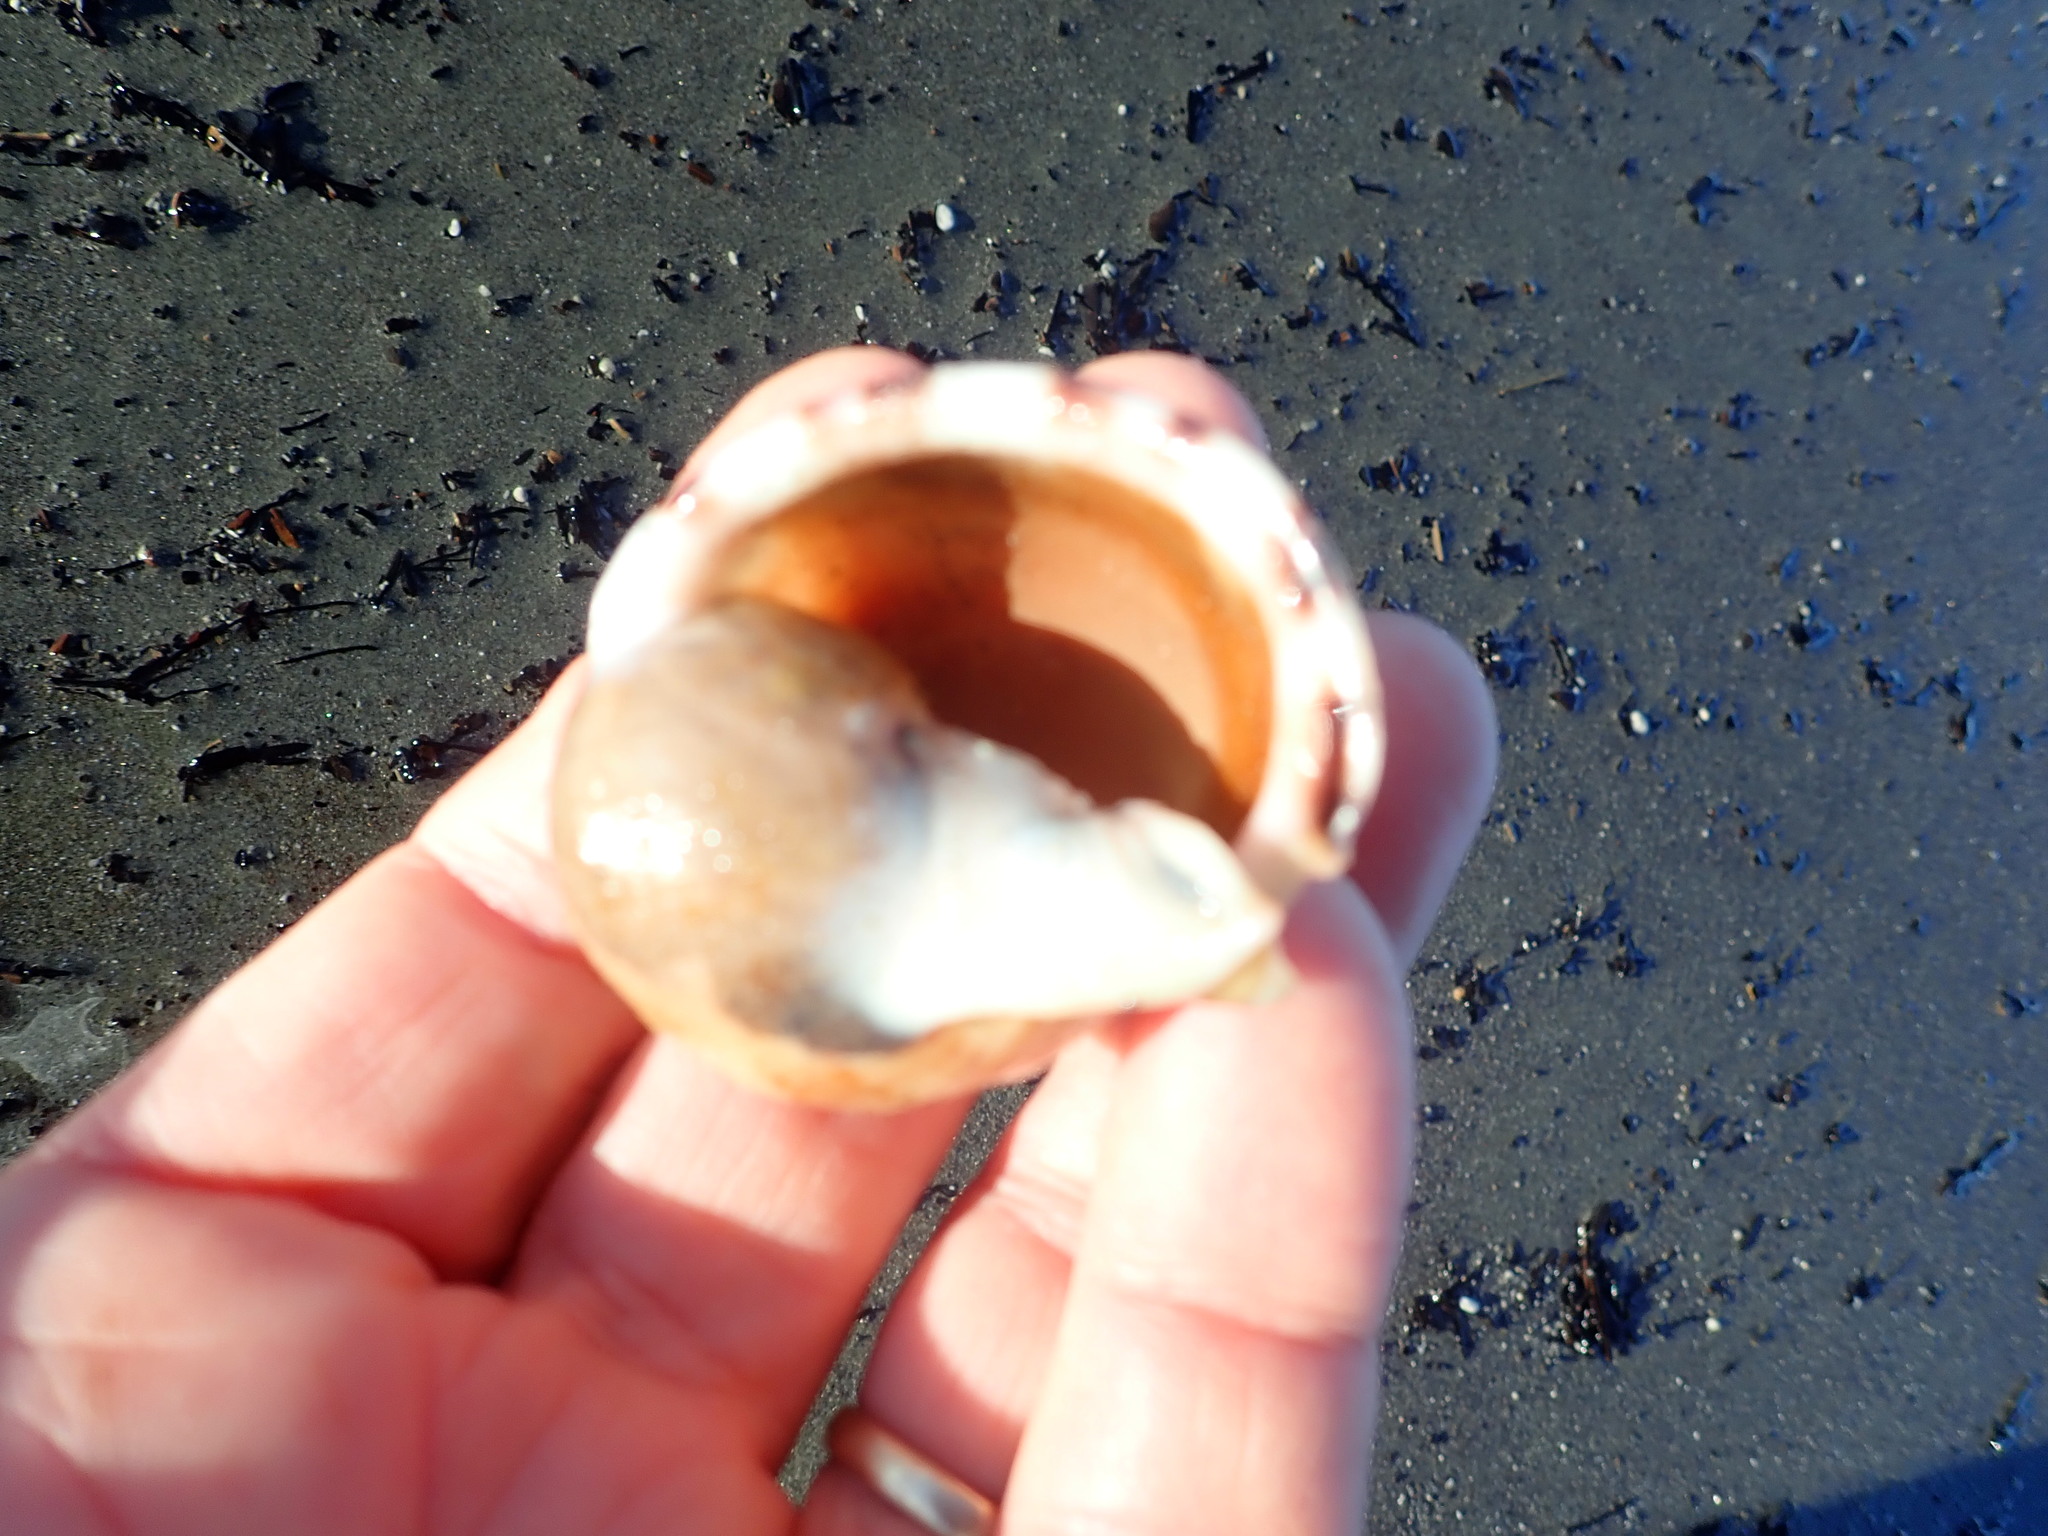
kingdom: Animalia
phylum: Mollusca
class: Gastropoda
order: Littorinimorpha
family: Cassidae
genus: Semicassis
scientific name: Semicassis pyrum
